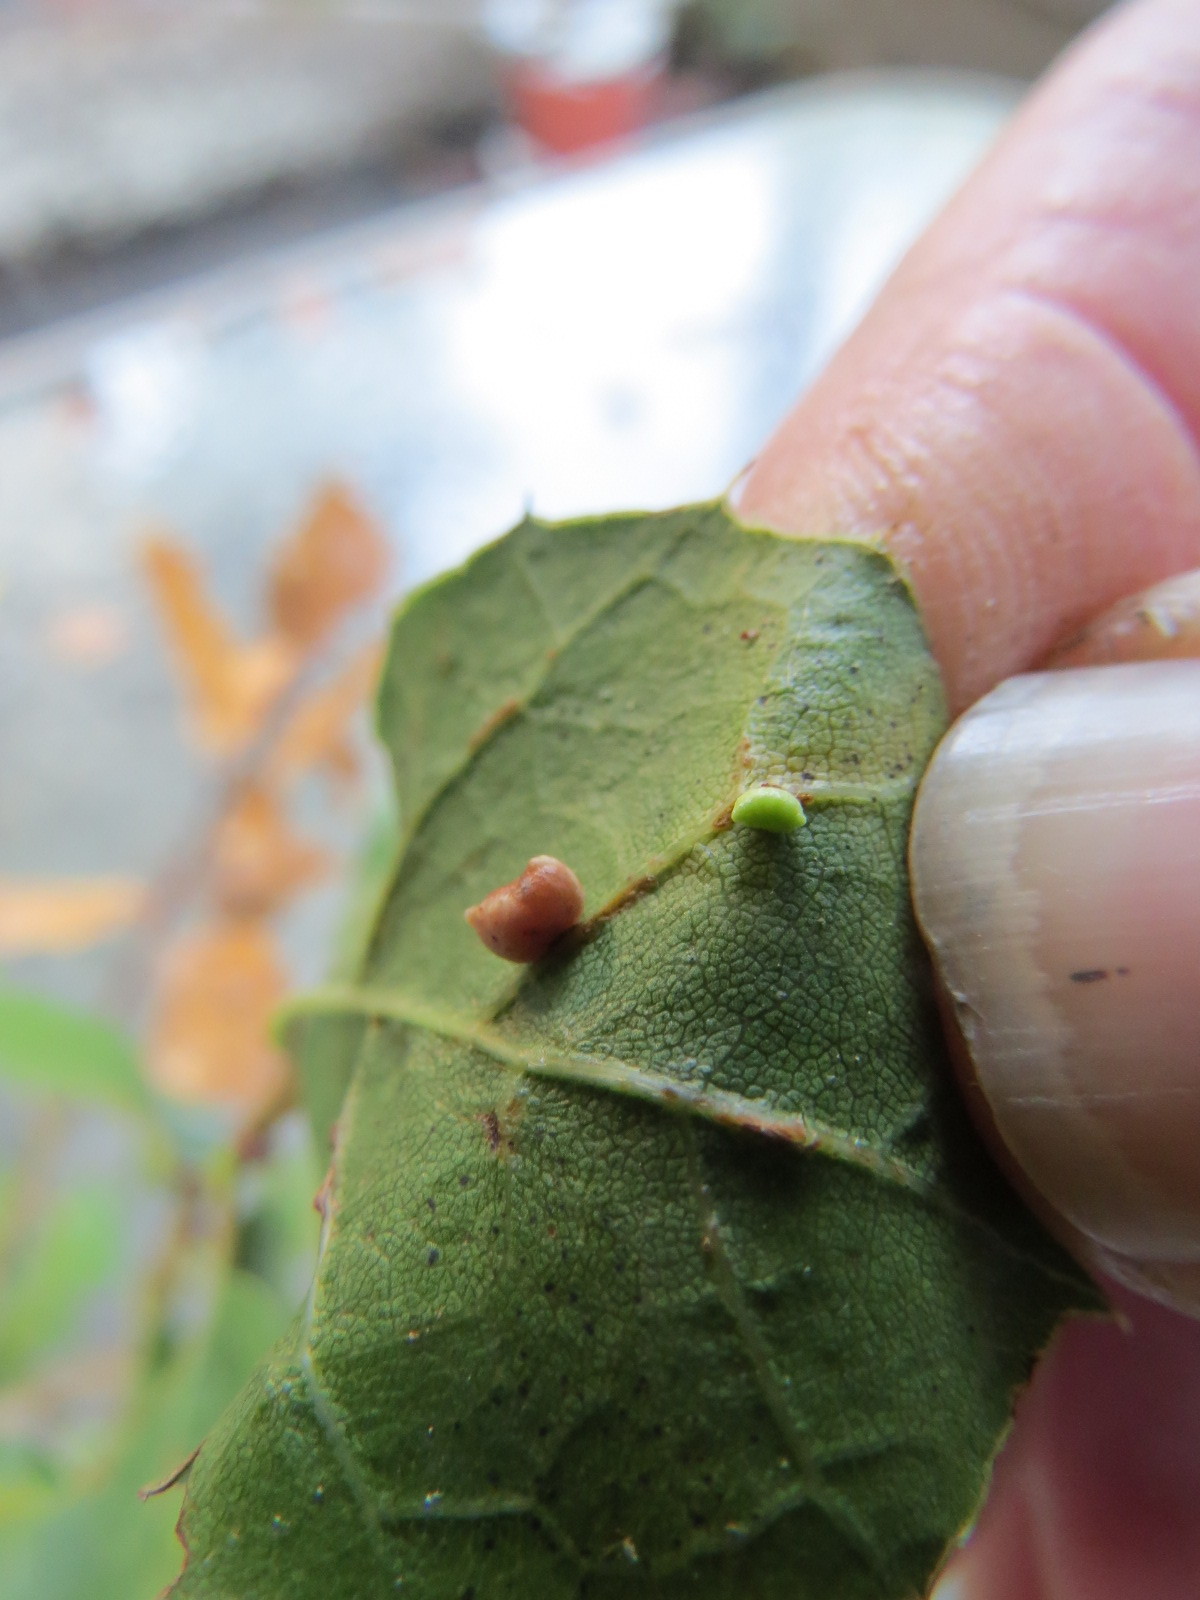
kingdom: Animalia
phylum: Arthropoda
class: Insecta
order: Hymenoptera
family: Cynipidae
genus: Dryocosmus
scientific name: Dryocosmus
